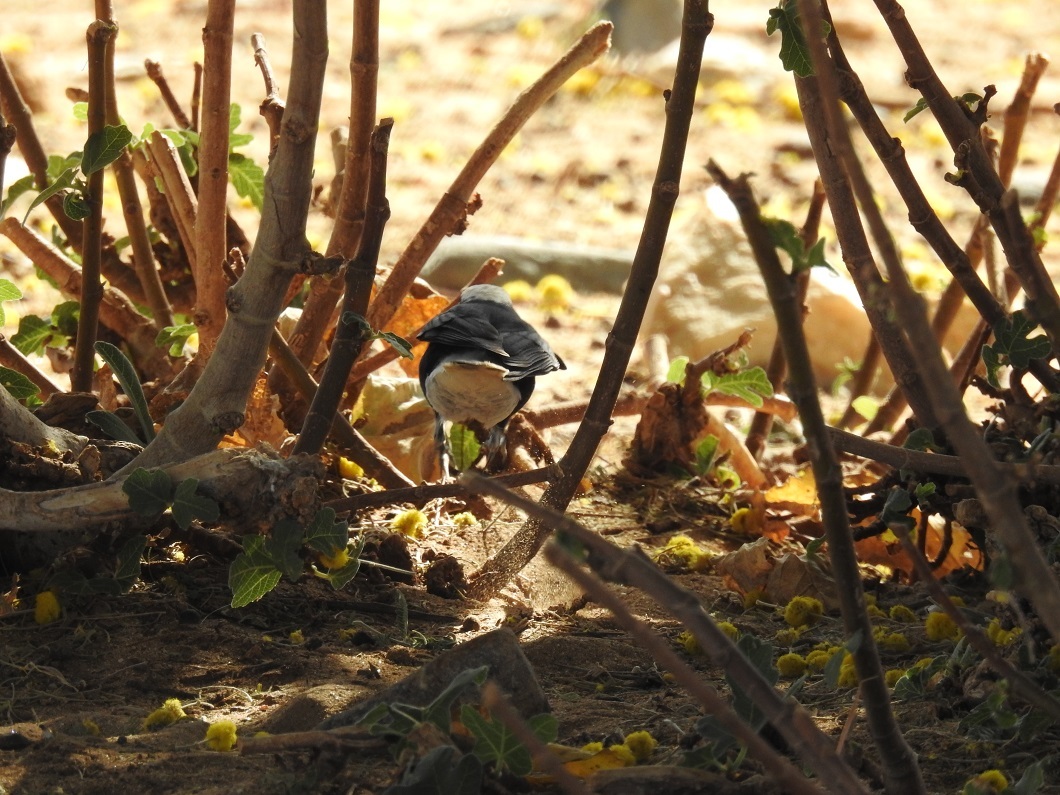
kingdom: Animalia
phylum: Chordata
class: Aves
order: Passeriformes
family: Muscicapidae
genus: Oenanthe
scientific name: Oenanthe leucopyga
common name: White-crowned wheatear
